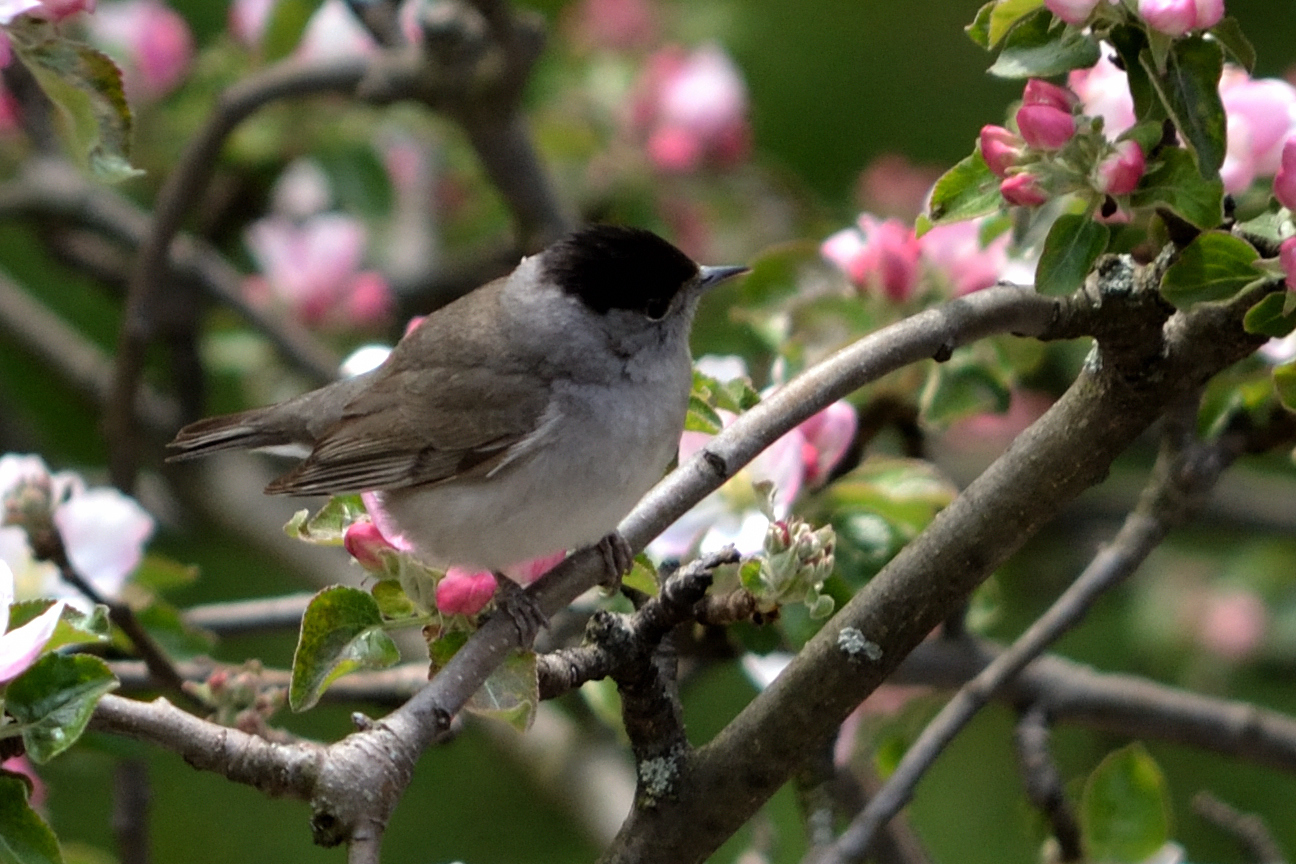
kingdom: Animalia
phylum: Chordata
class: Aves
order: Passeriformes
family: Sylviidae
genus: Sylvia
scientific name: Sylvia atricapilla
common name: Eurasian blackcap
